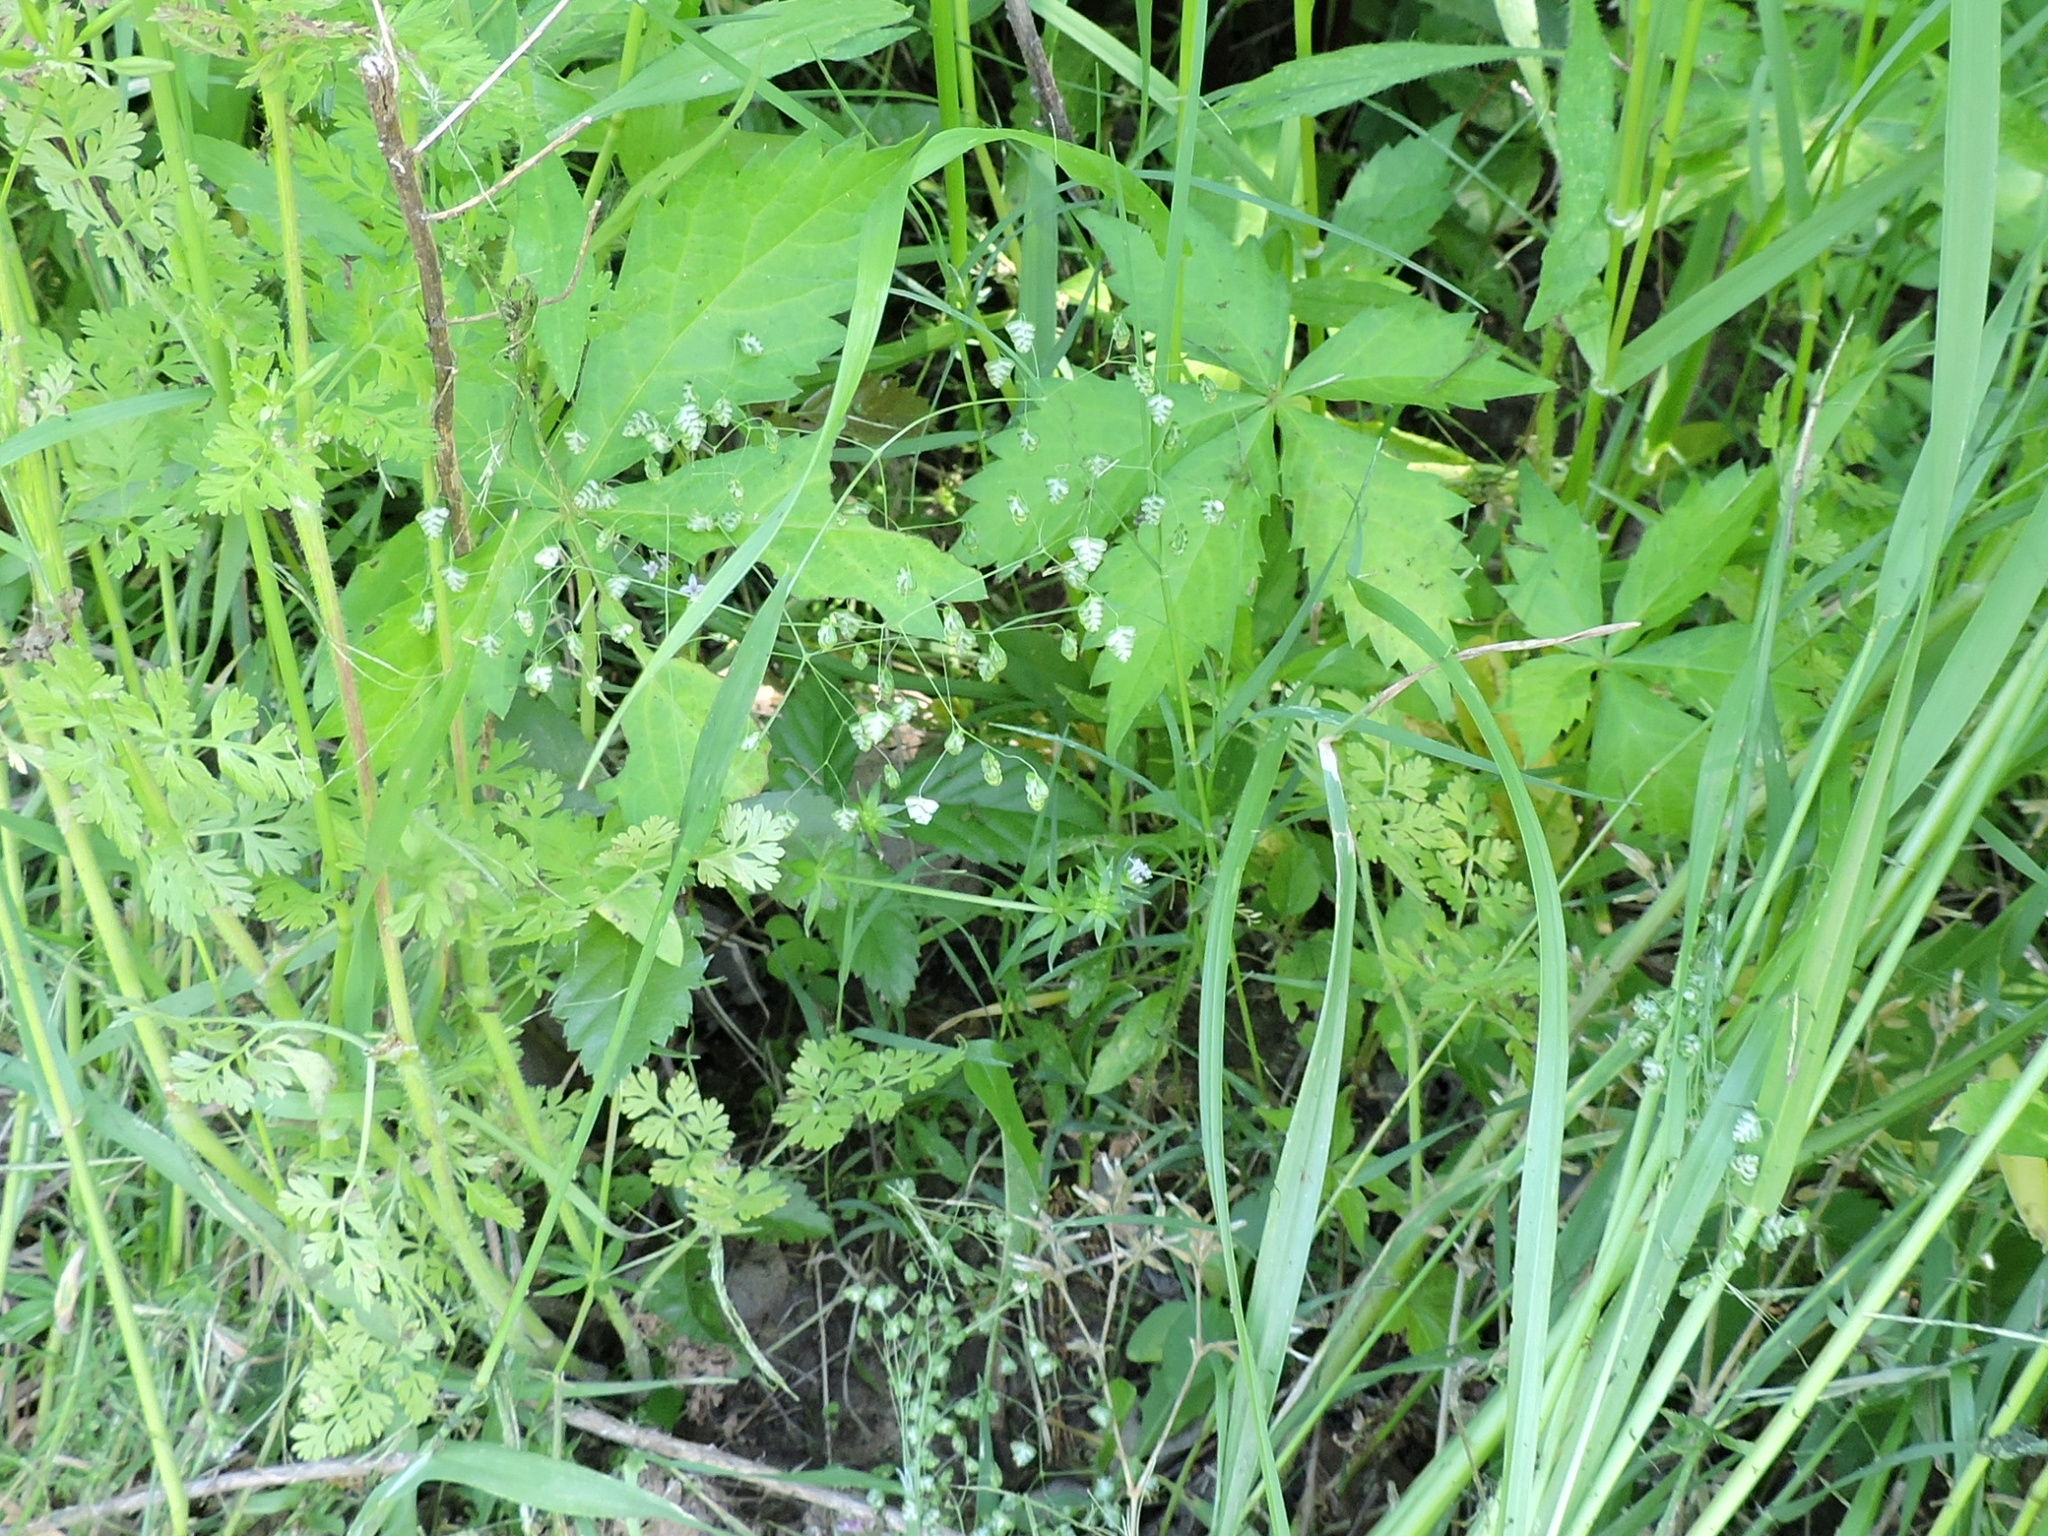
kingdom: Plantae
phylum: Tracheophyta
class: Liliopsida
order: Poales
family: Poaceae
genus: Briza
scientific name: Briza minor
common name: Lesser quaking-grass
